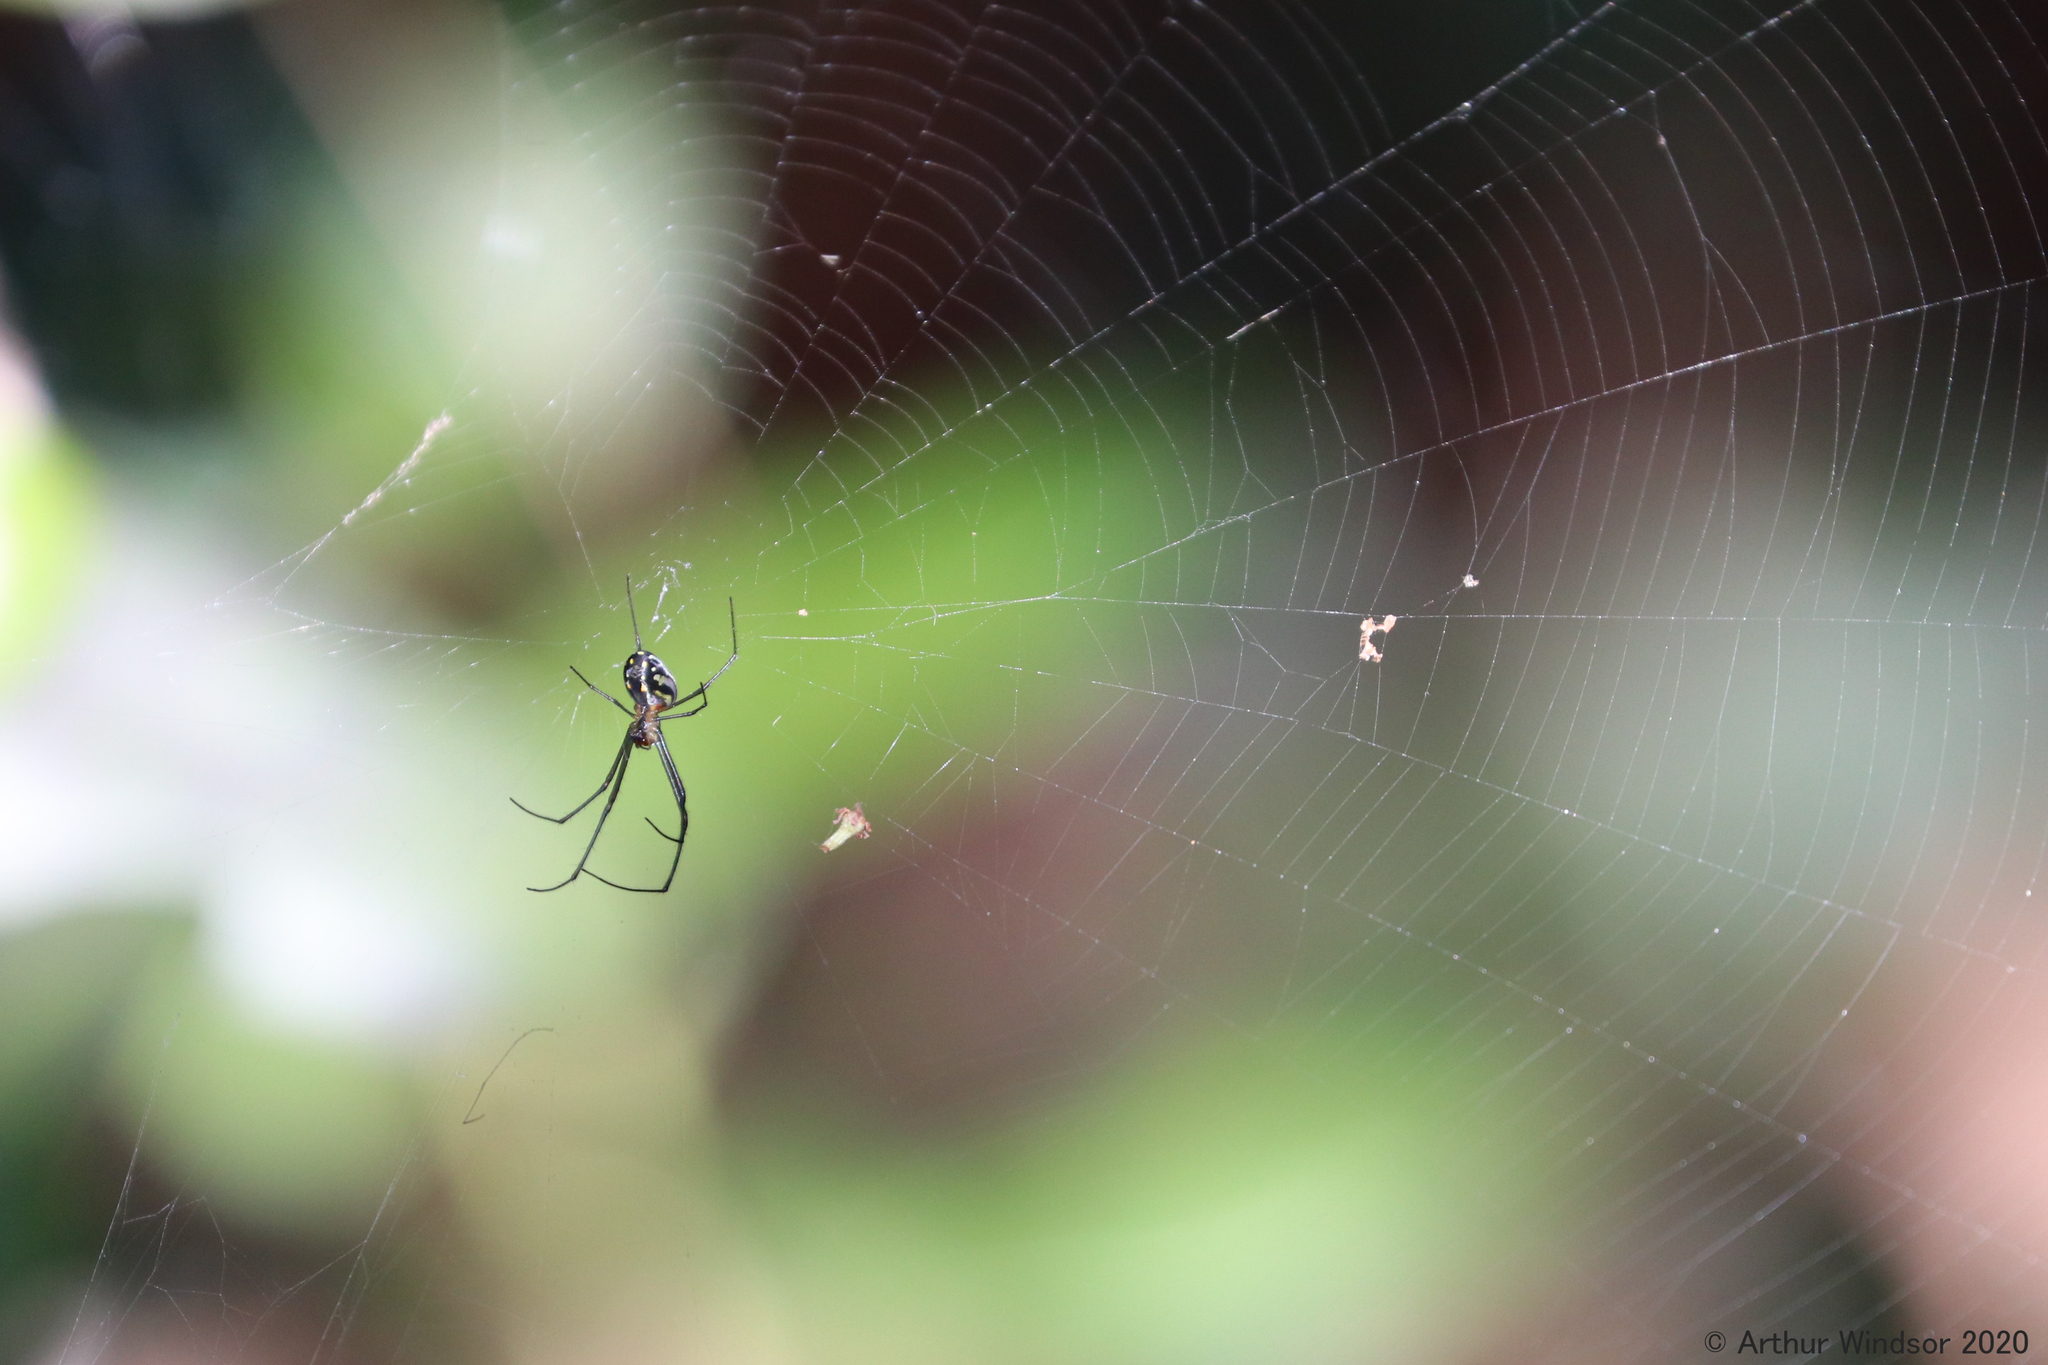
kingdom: Animalia
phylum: Arthropoda
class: Arachnida
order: Araneae
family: Tetragnathidae
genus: Leucauge
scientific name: Leucauge argyra
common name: Longjawed orb weavers
